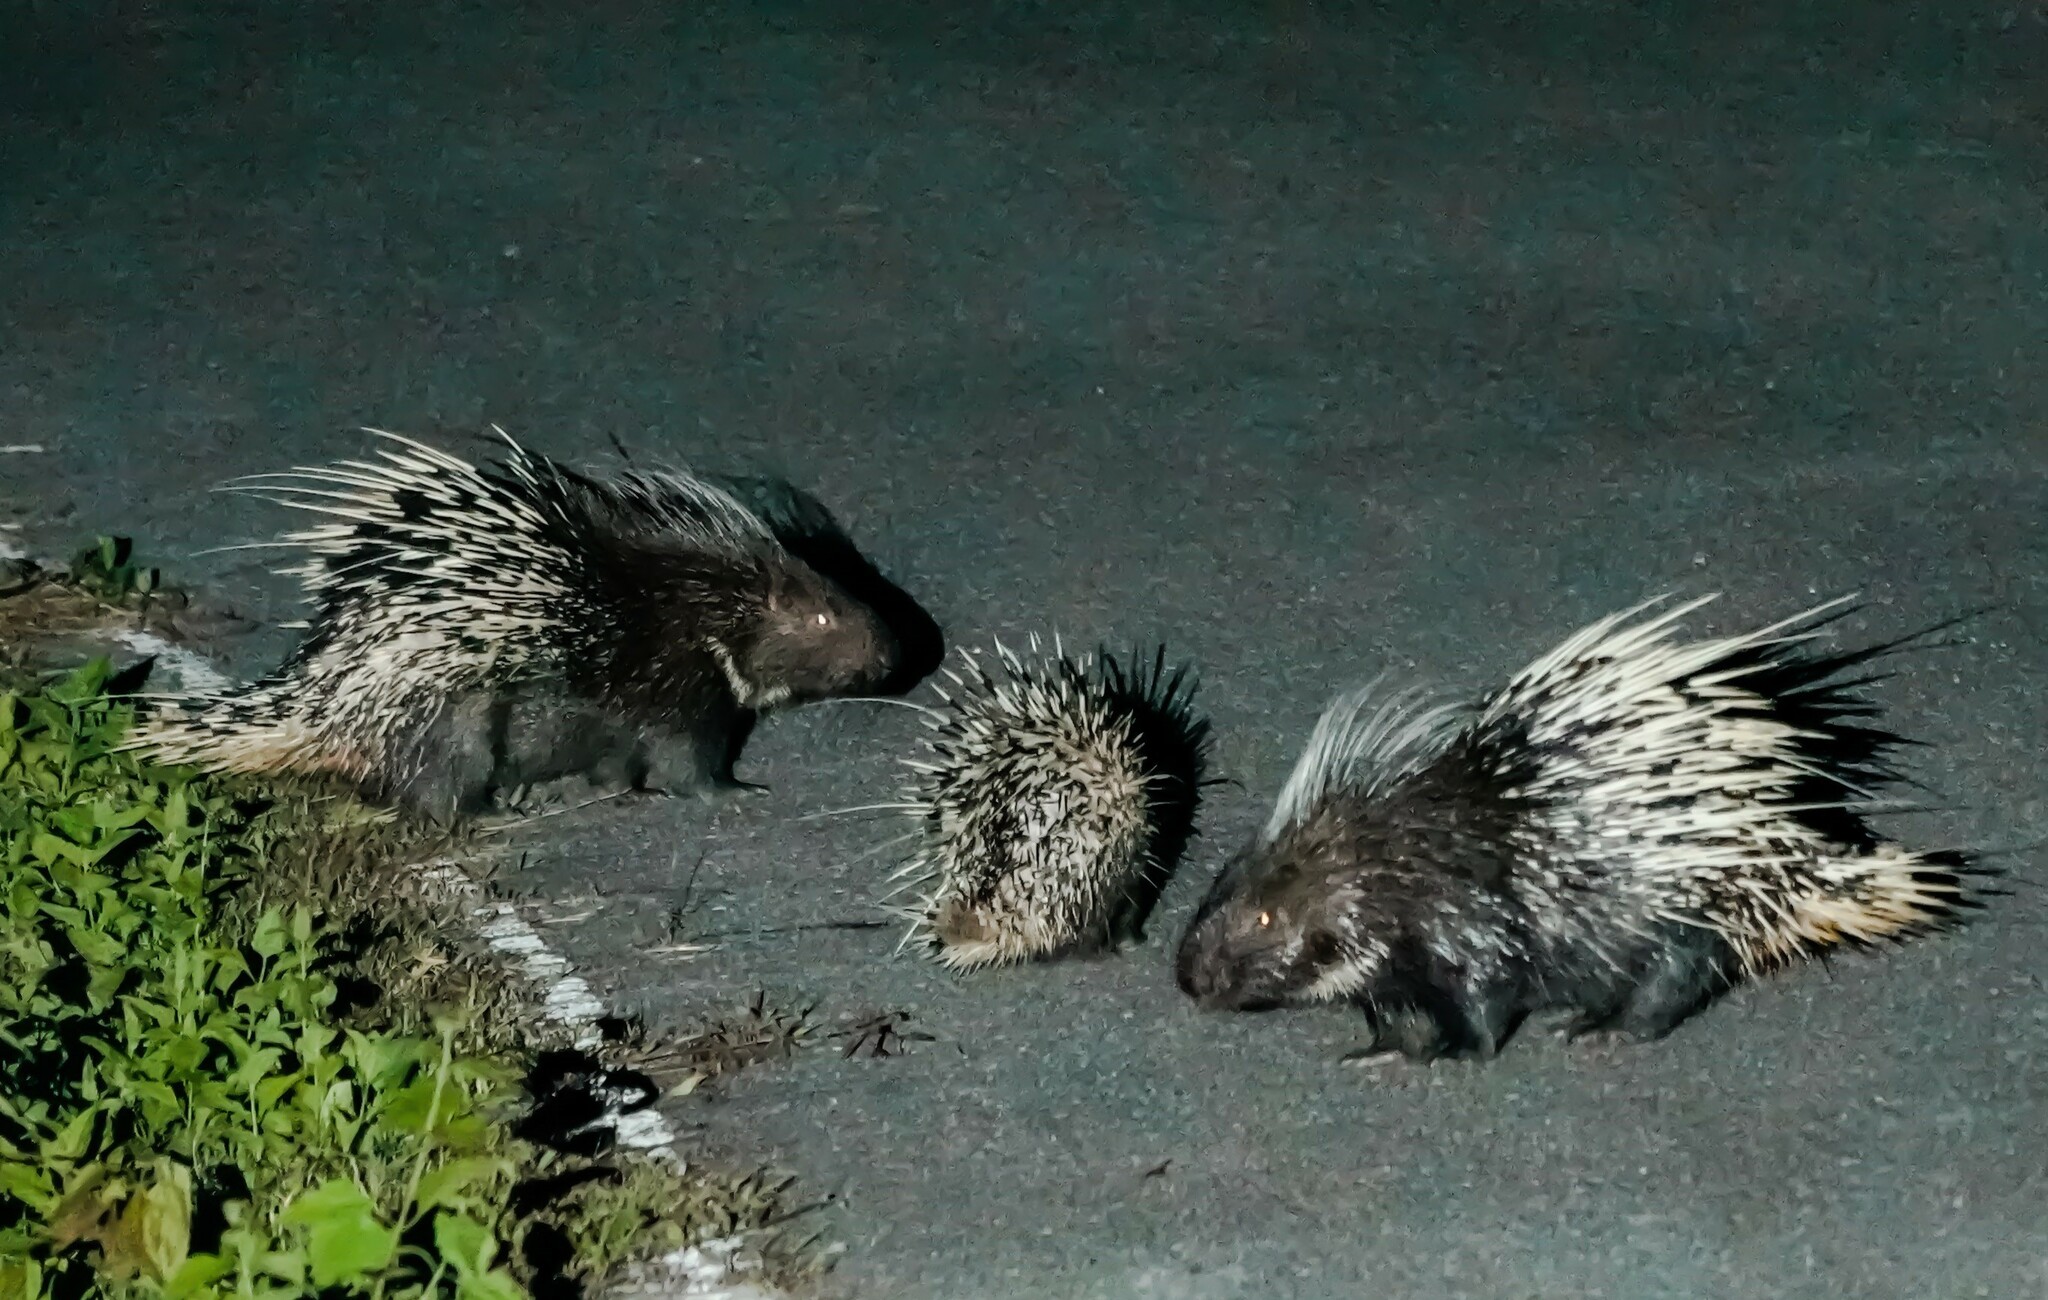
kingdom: Animalia
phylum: Chordata
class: Mammalia
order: Rodentia
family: Hystricidae
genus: Hystrix
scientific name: Hystrix brachyura
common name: Malayan porcupine
